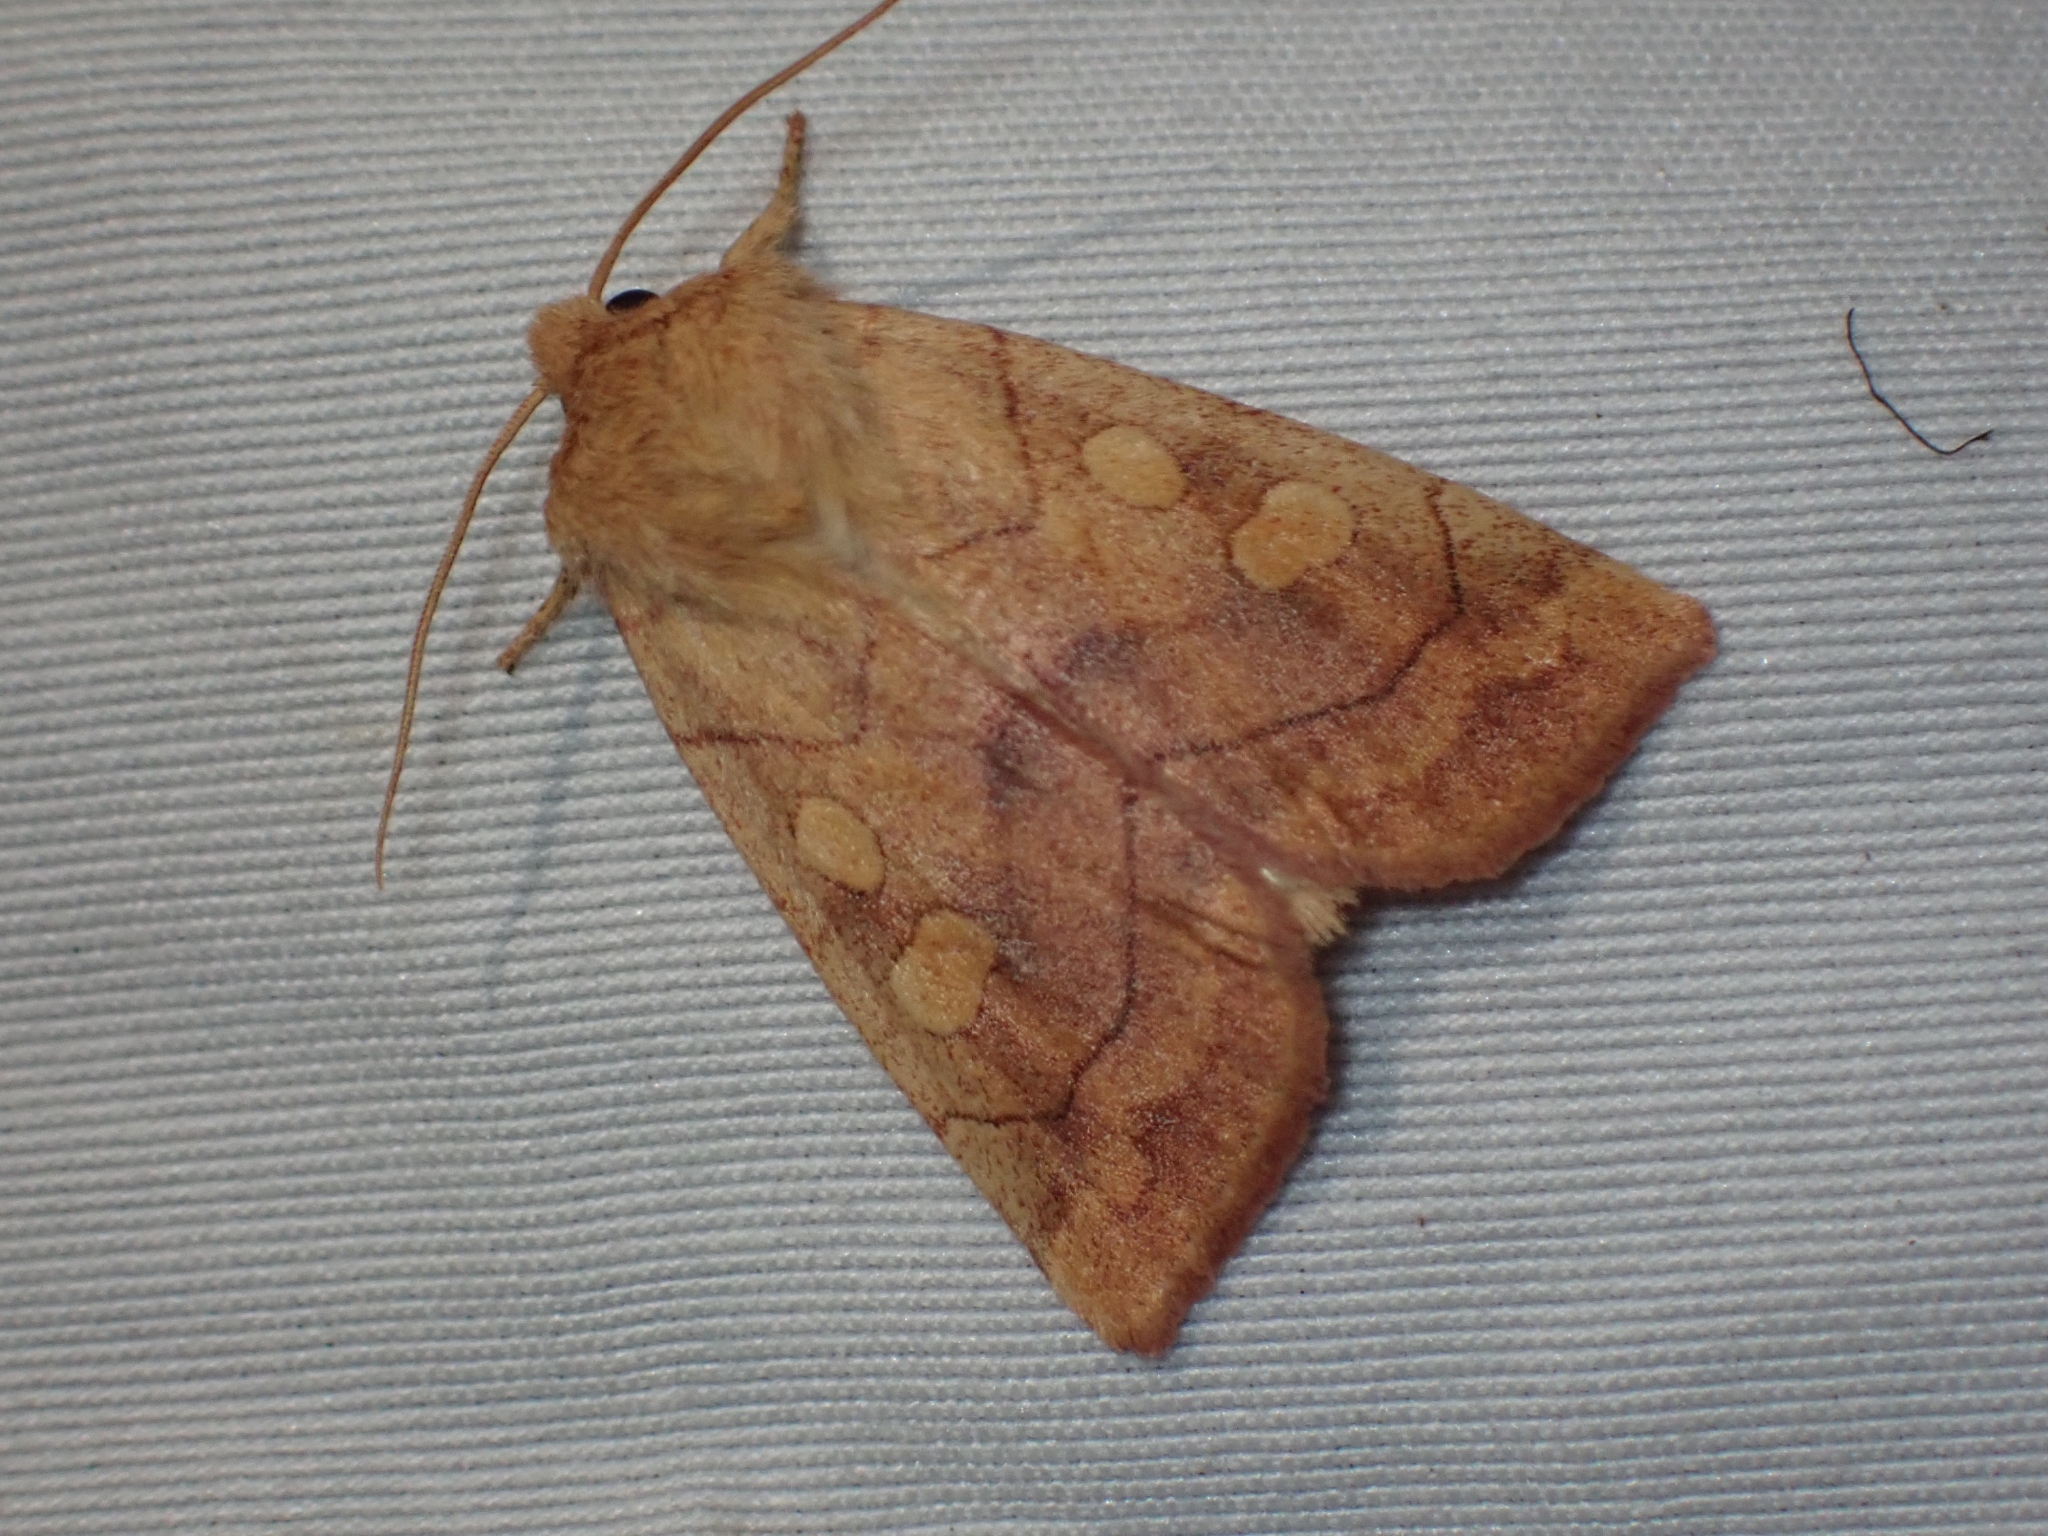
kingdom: Animalia
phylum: Arthropoda
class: Insecta
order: Lepidoptera
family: Noctuidae
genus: Enargia
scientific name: Enargia decolor
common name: Aspen twoleaf tier moth
